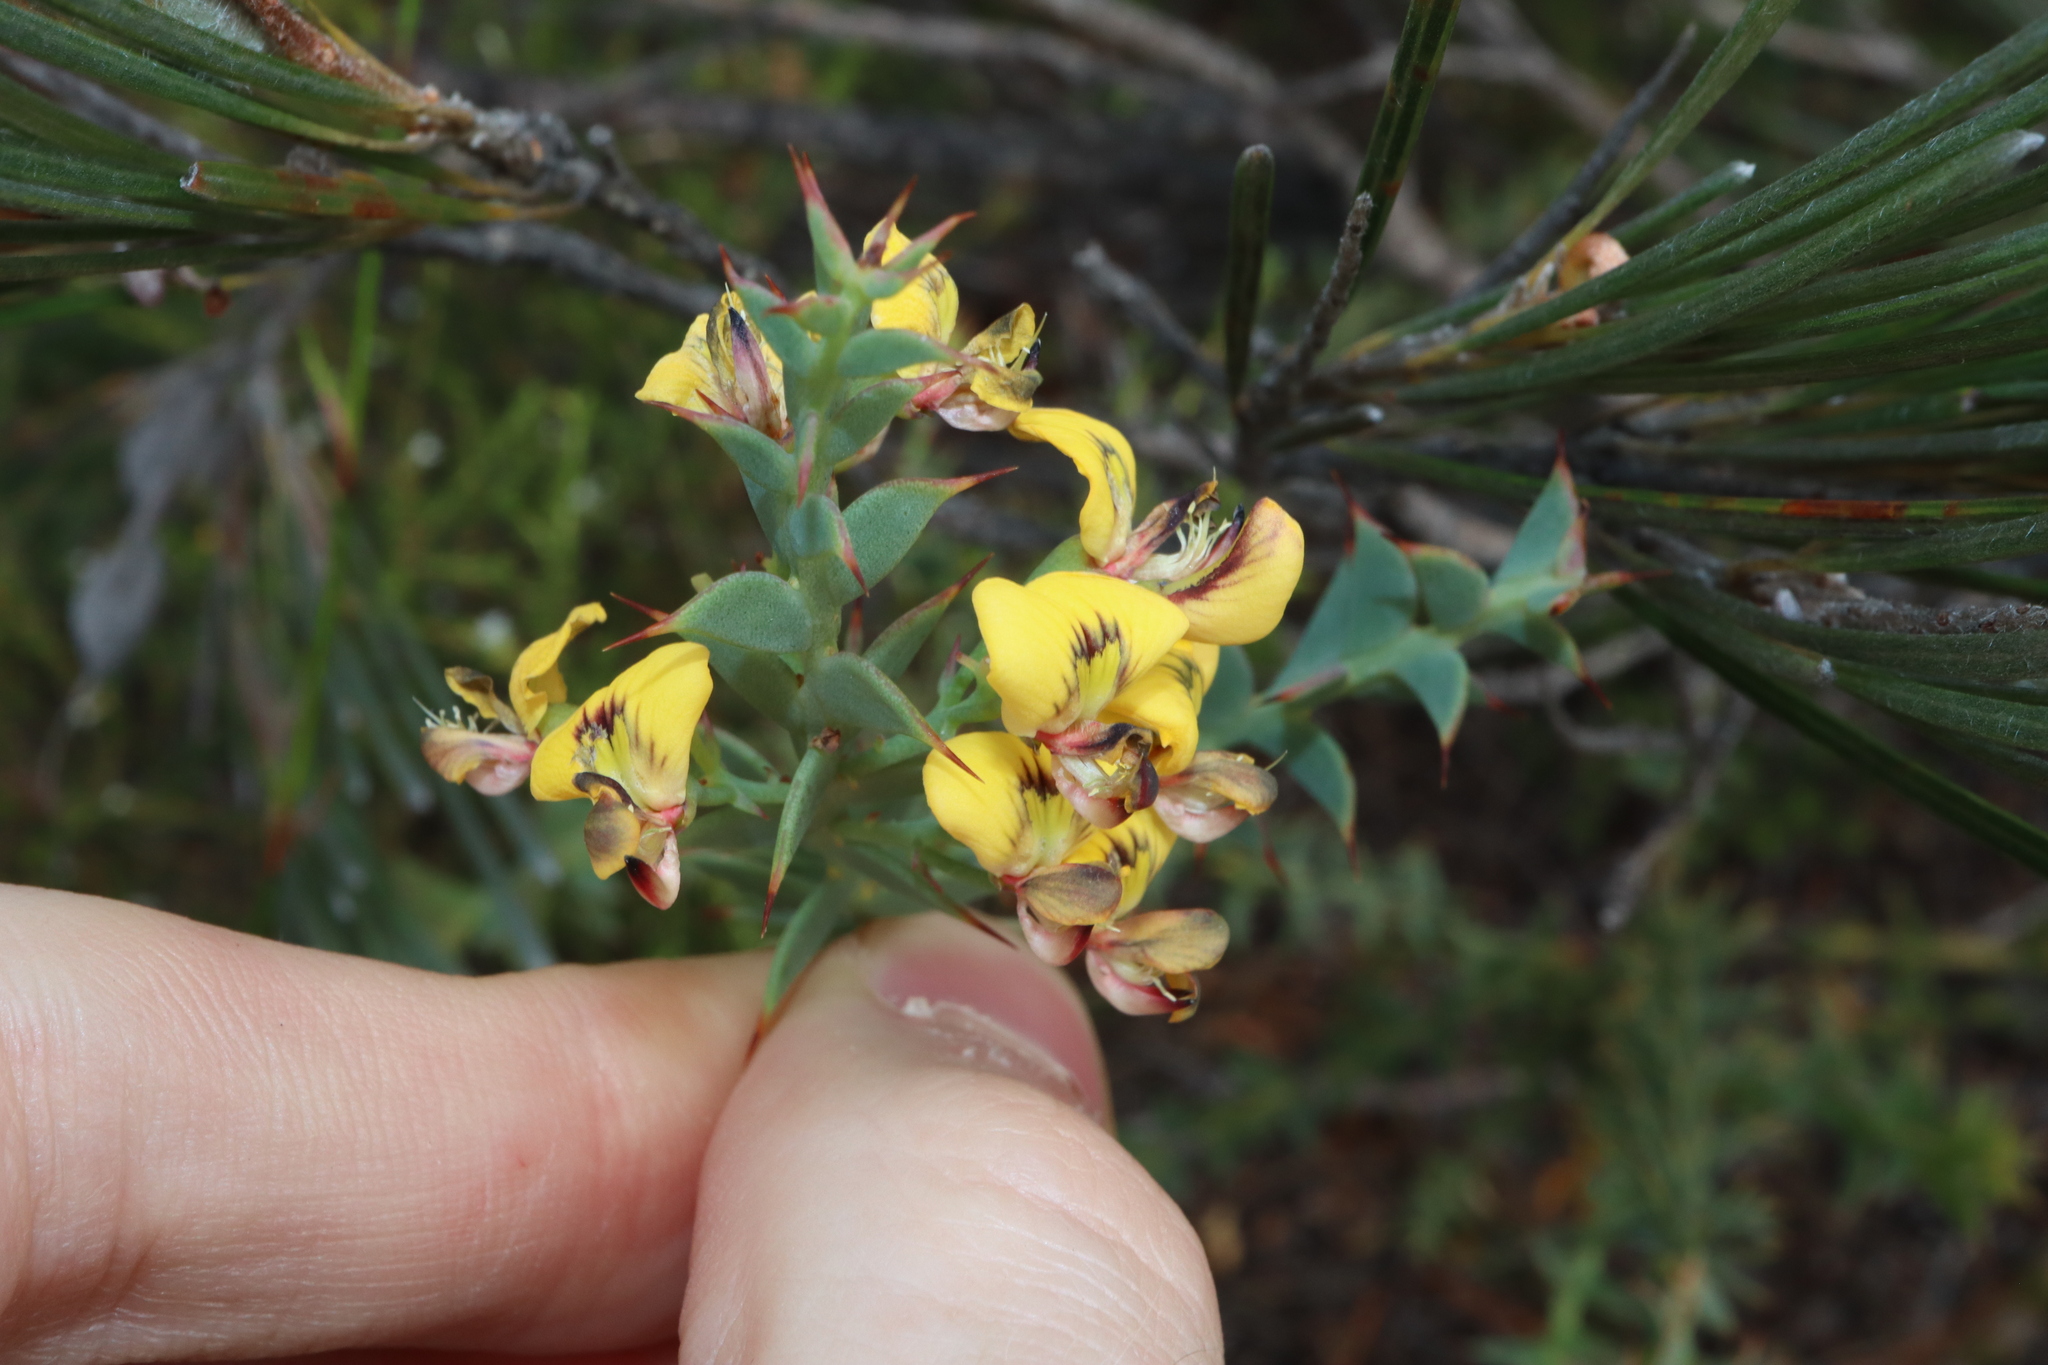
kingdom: Plantae
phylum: Tracheophyta
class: Magnoliopsida
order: Fabales
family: Fabaceae
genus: Daviesia
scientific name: Daviesia striata
